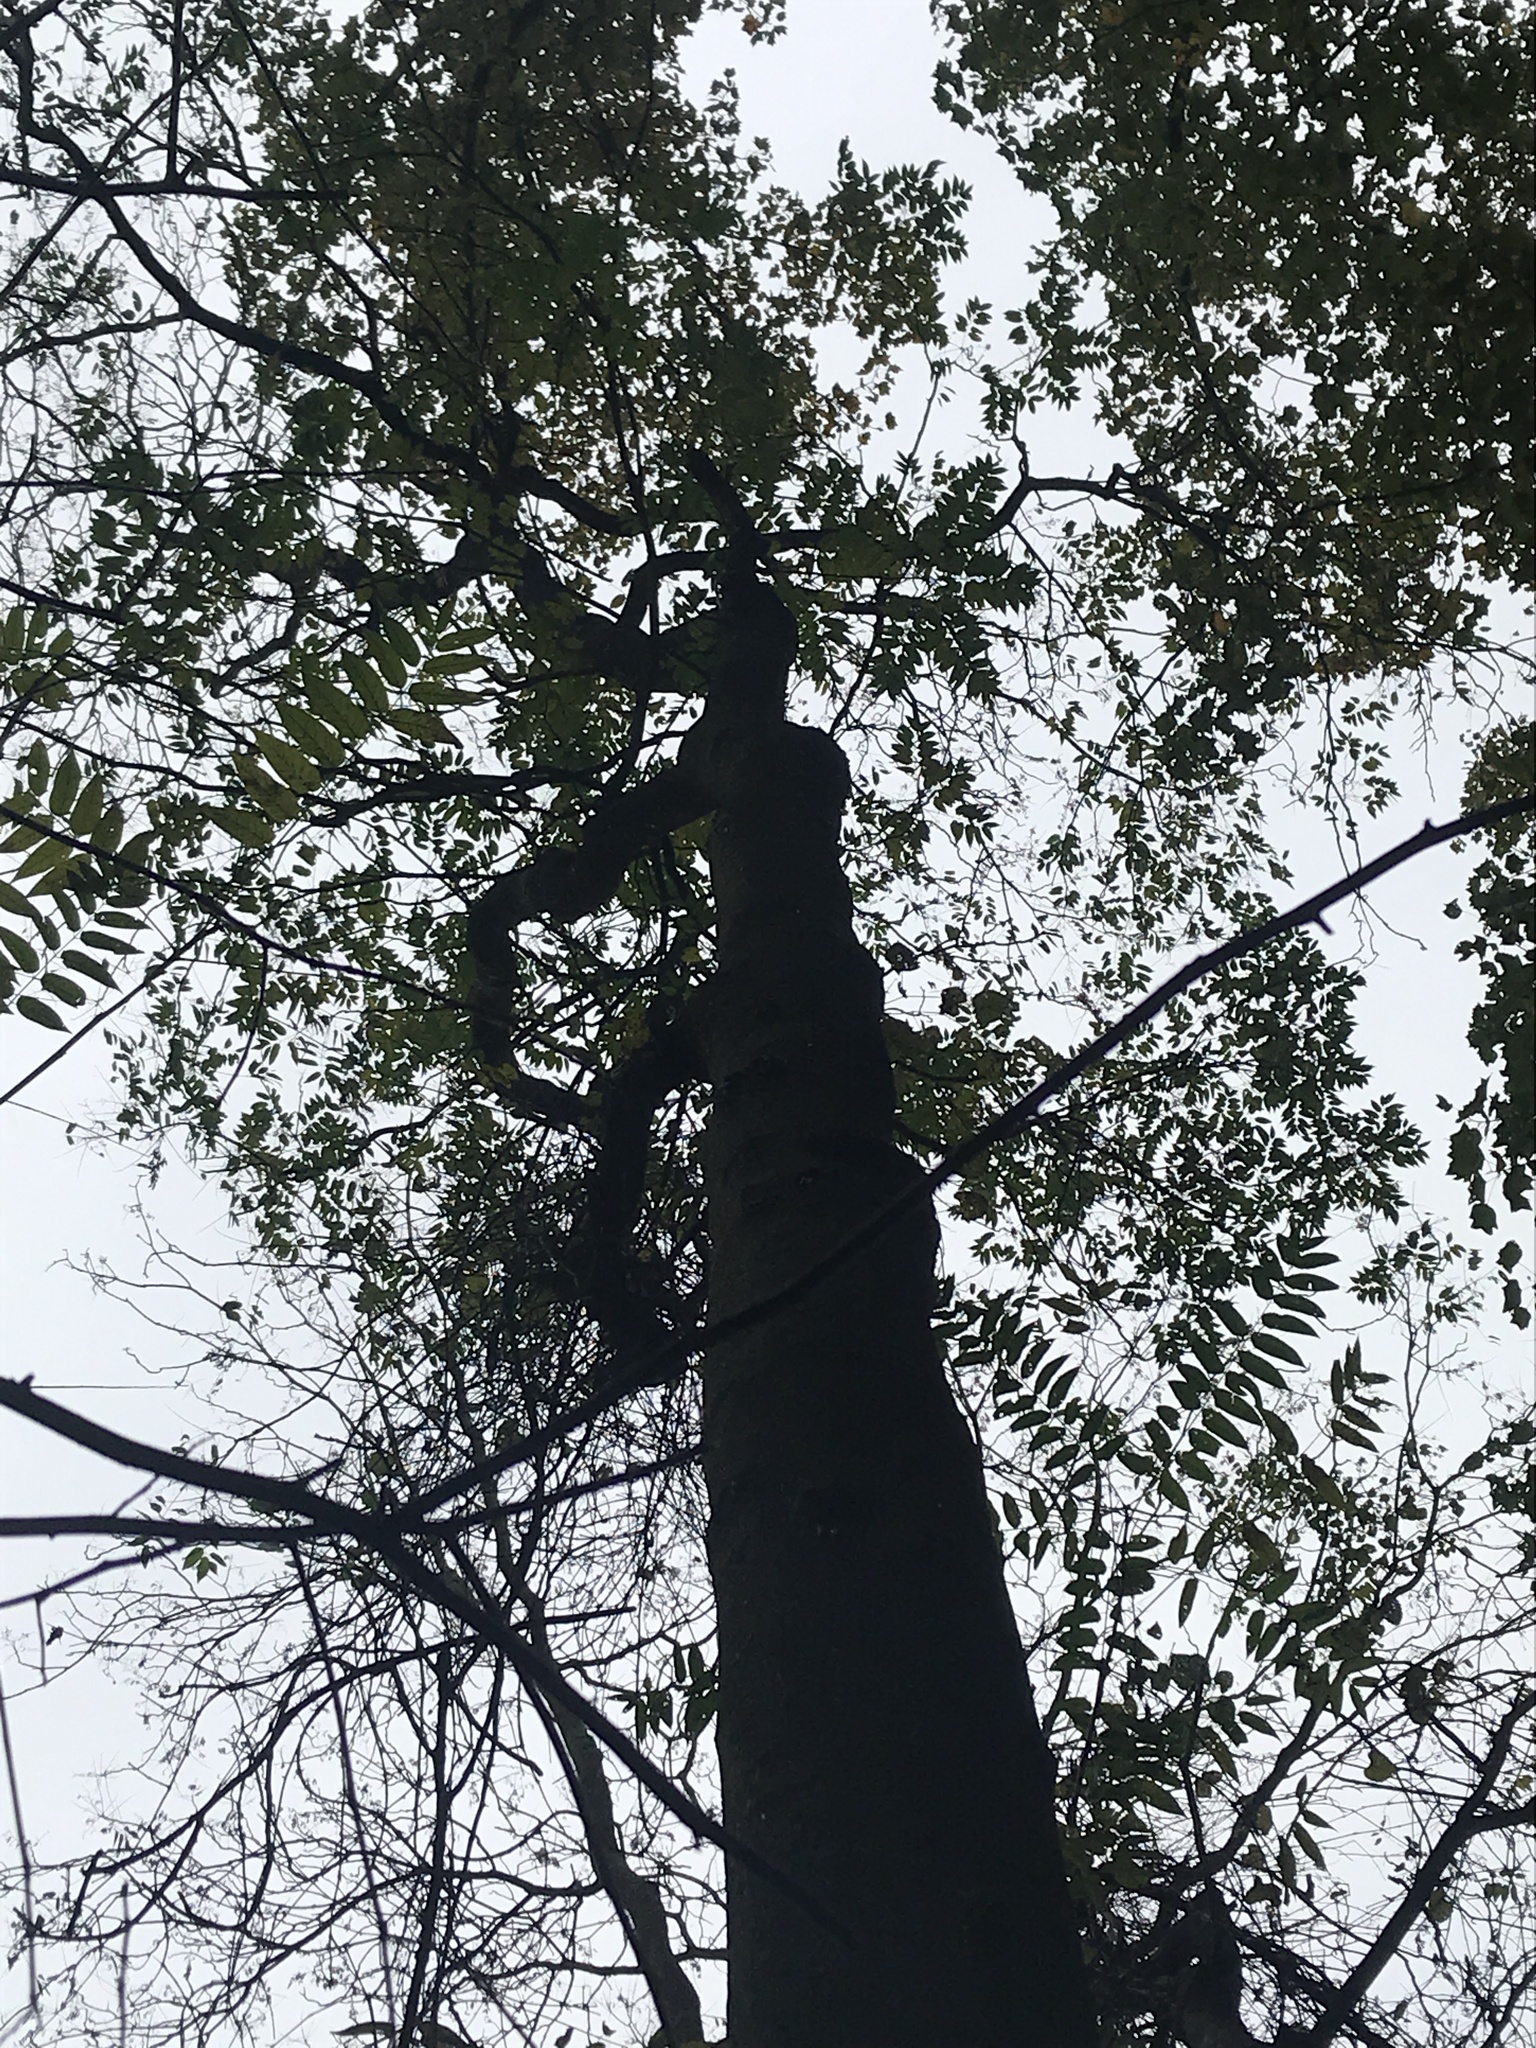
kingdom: Plantae
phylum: Tracheophyta
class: Magnoliopsida
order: Sapindales
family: Simaroubaceae
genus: Ailanthus
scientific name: Ailanthus altissima
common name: Tree-of-heaven
